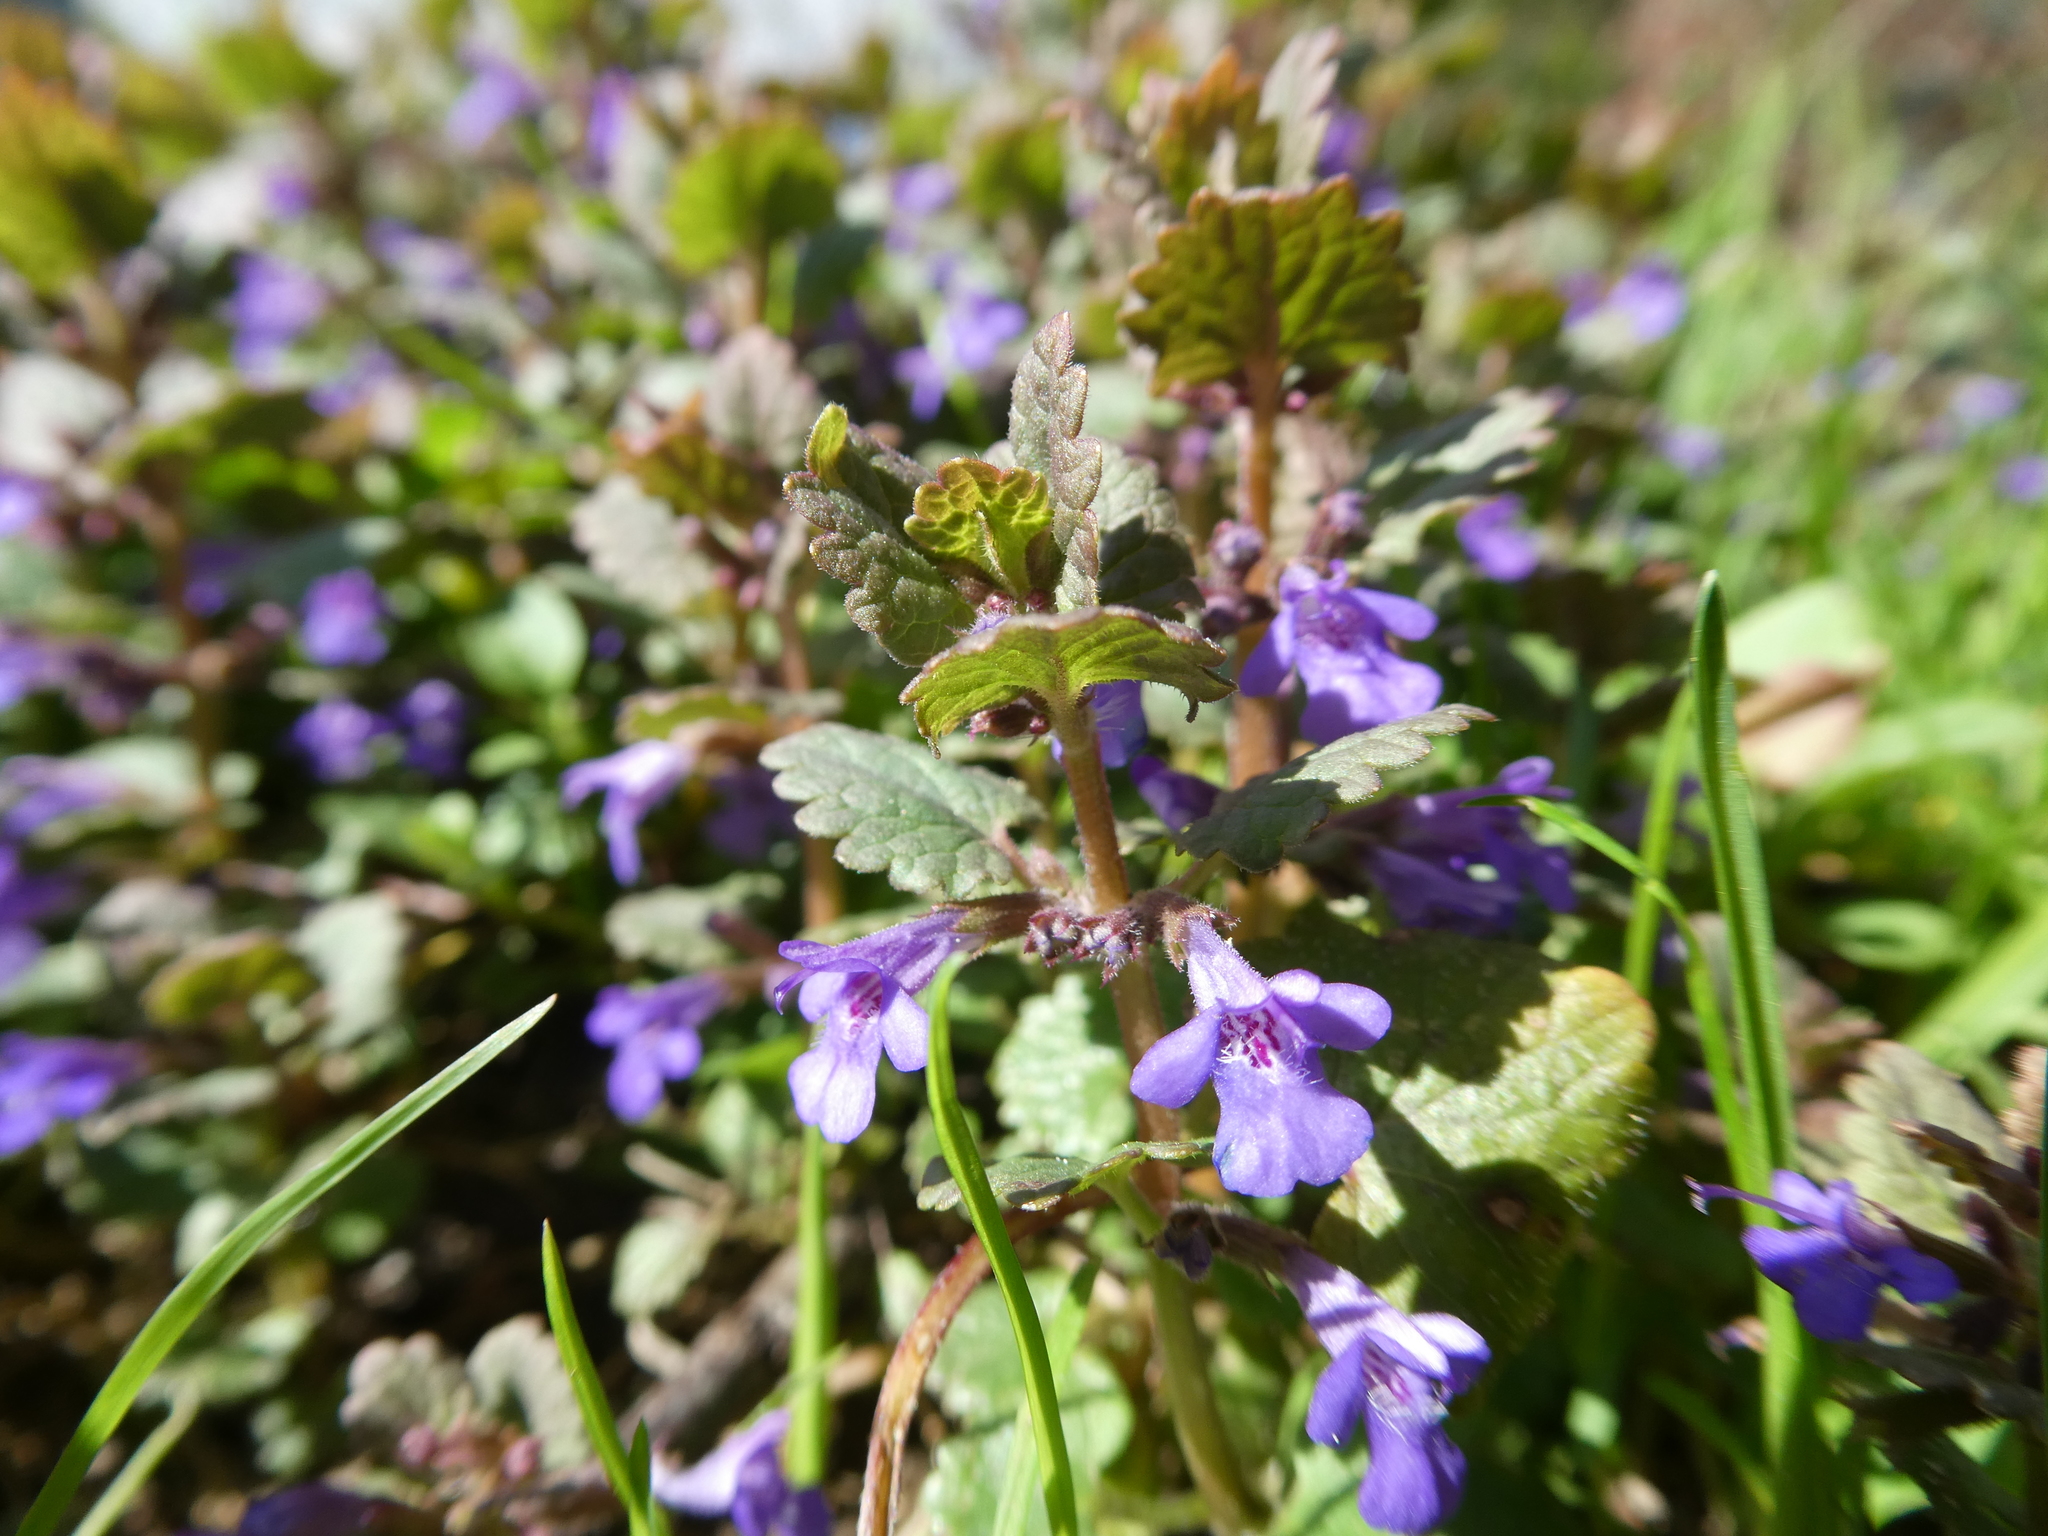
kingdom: Plantae
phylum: Tracheophyta
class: Magnoliopsida
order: Lamiales
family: Lamiaceae
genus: Glechoma
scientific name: Glechoma hederacea
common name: Ground ivy
